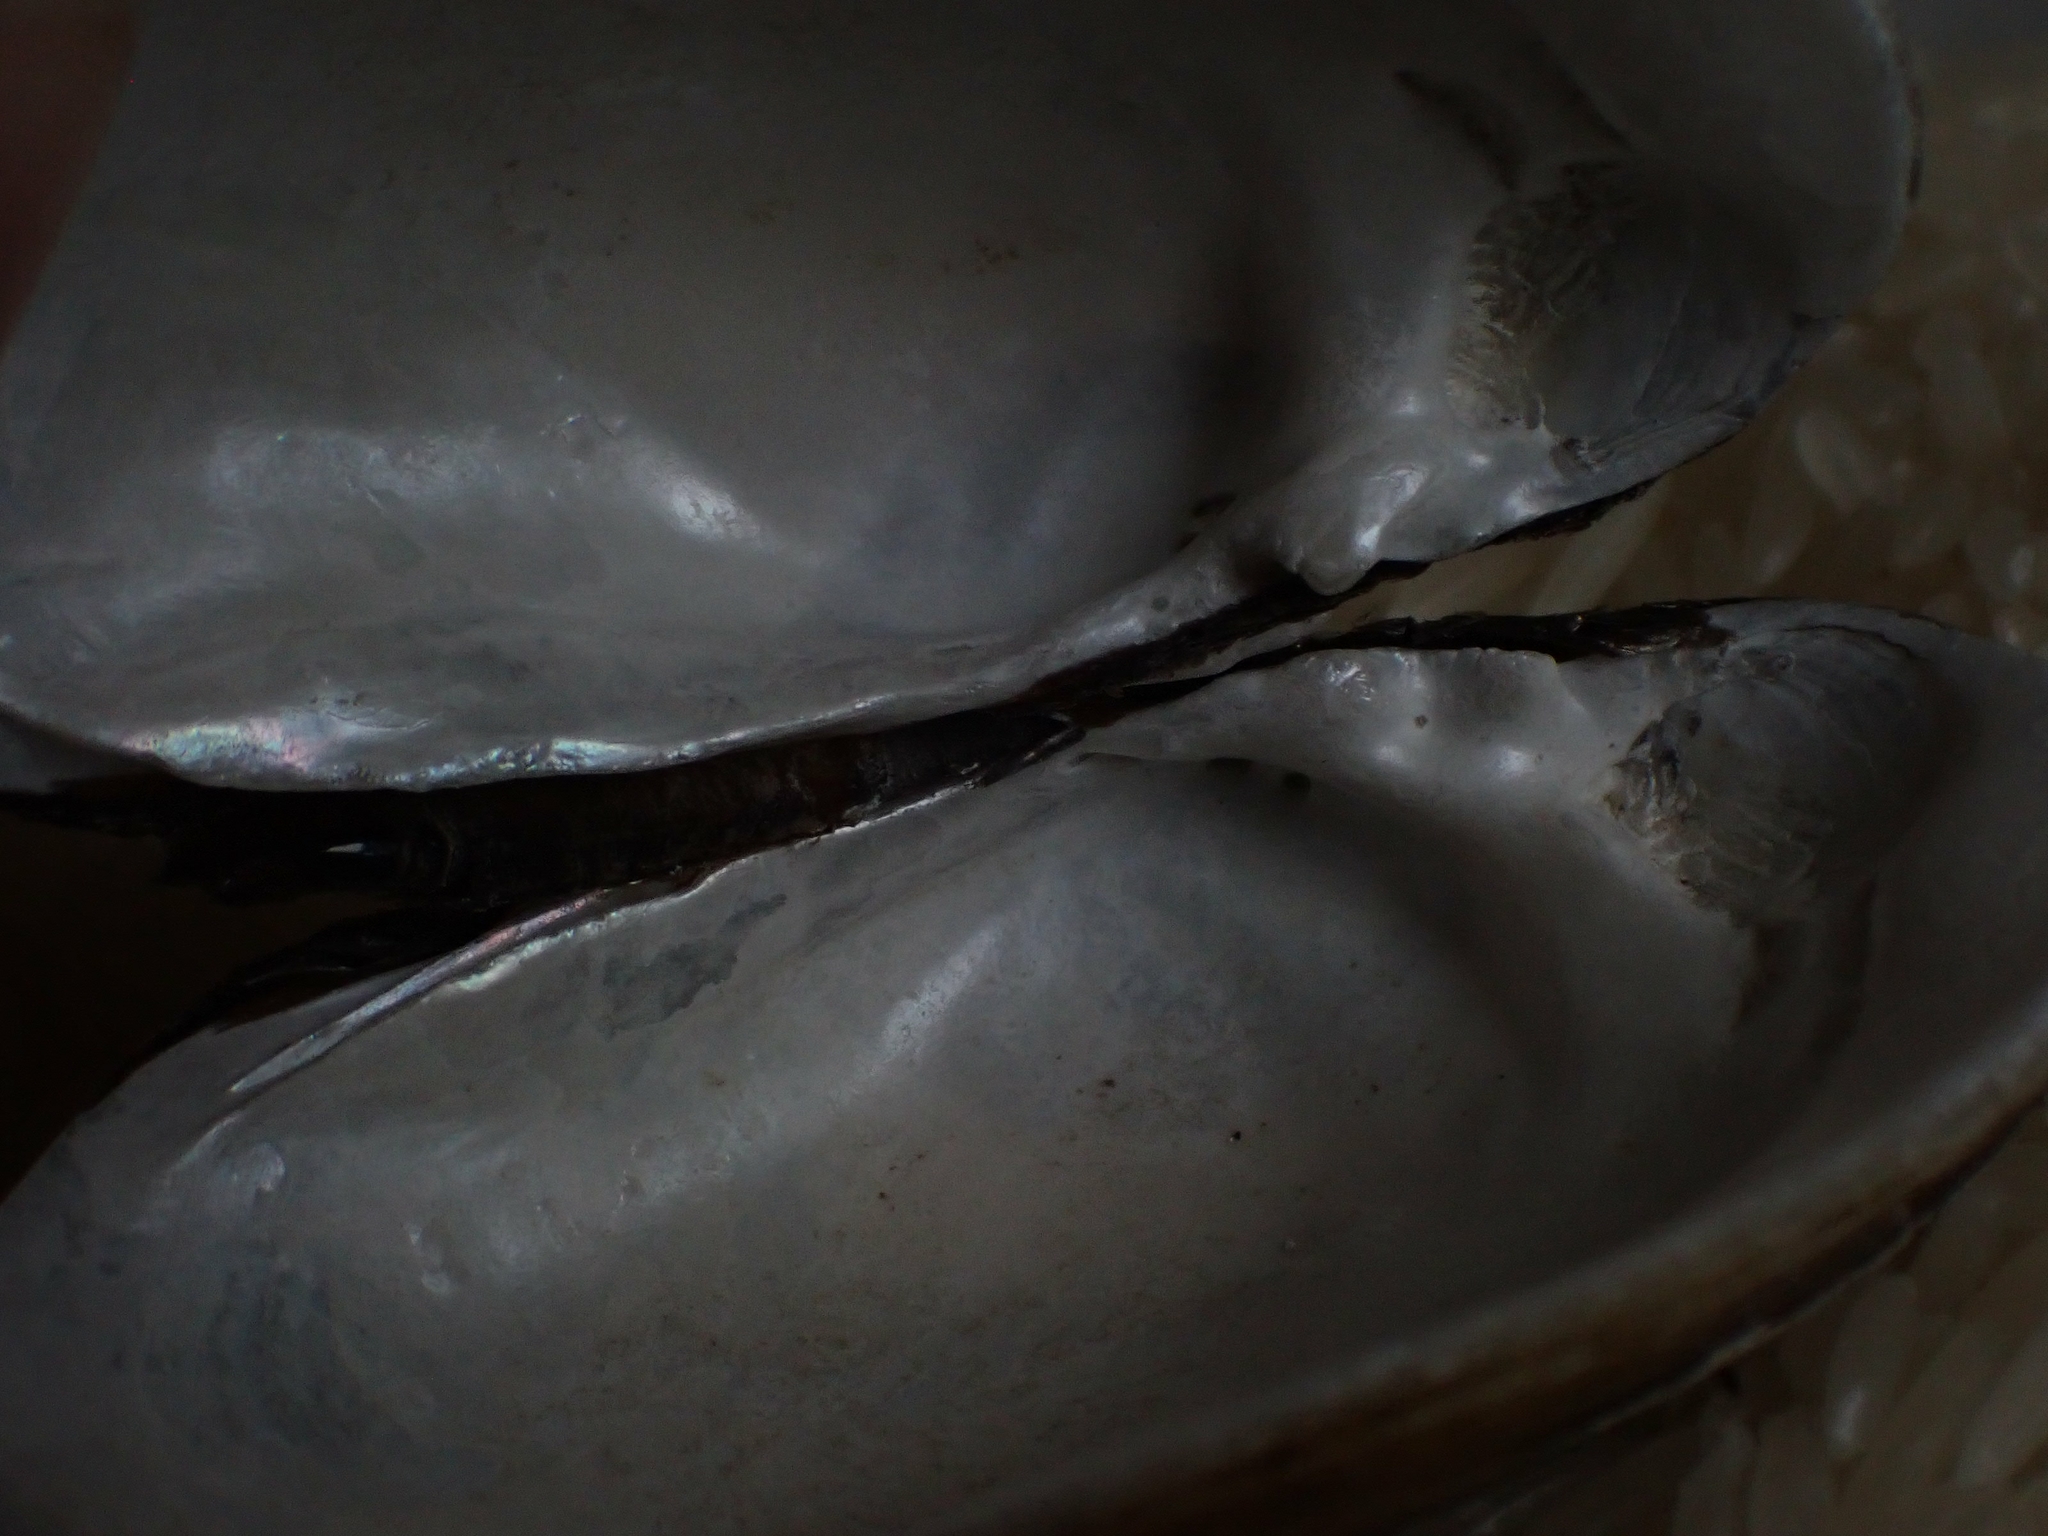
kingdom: Animalia
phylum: Mollusca
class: Bivalvia
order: Unionida
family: Unionidae
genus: Lampsilis
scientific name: Lampsilis siliquoidea
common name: Fatmucket
